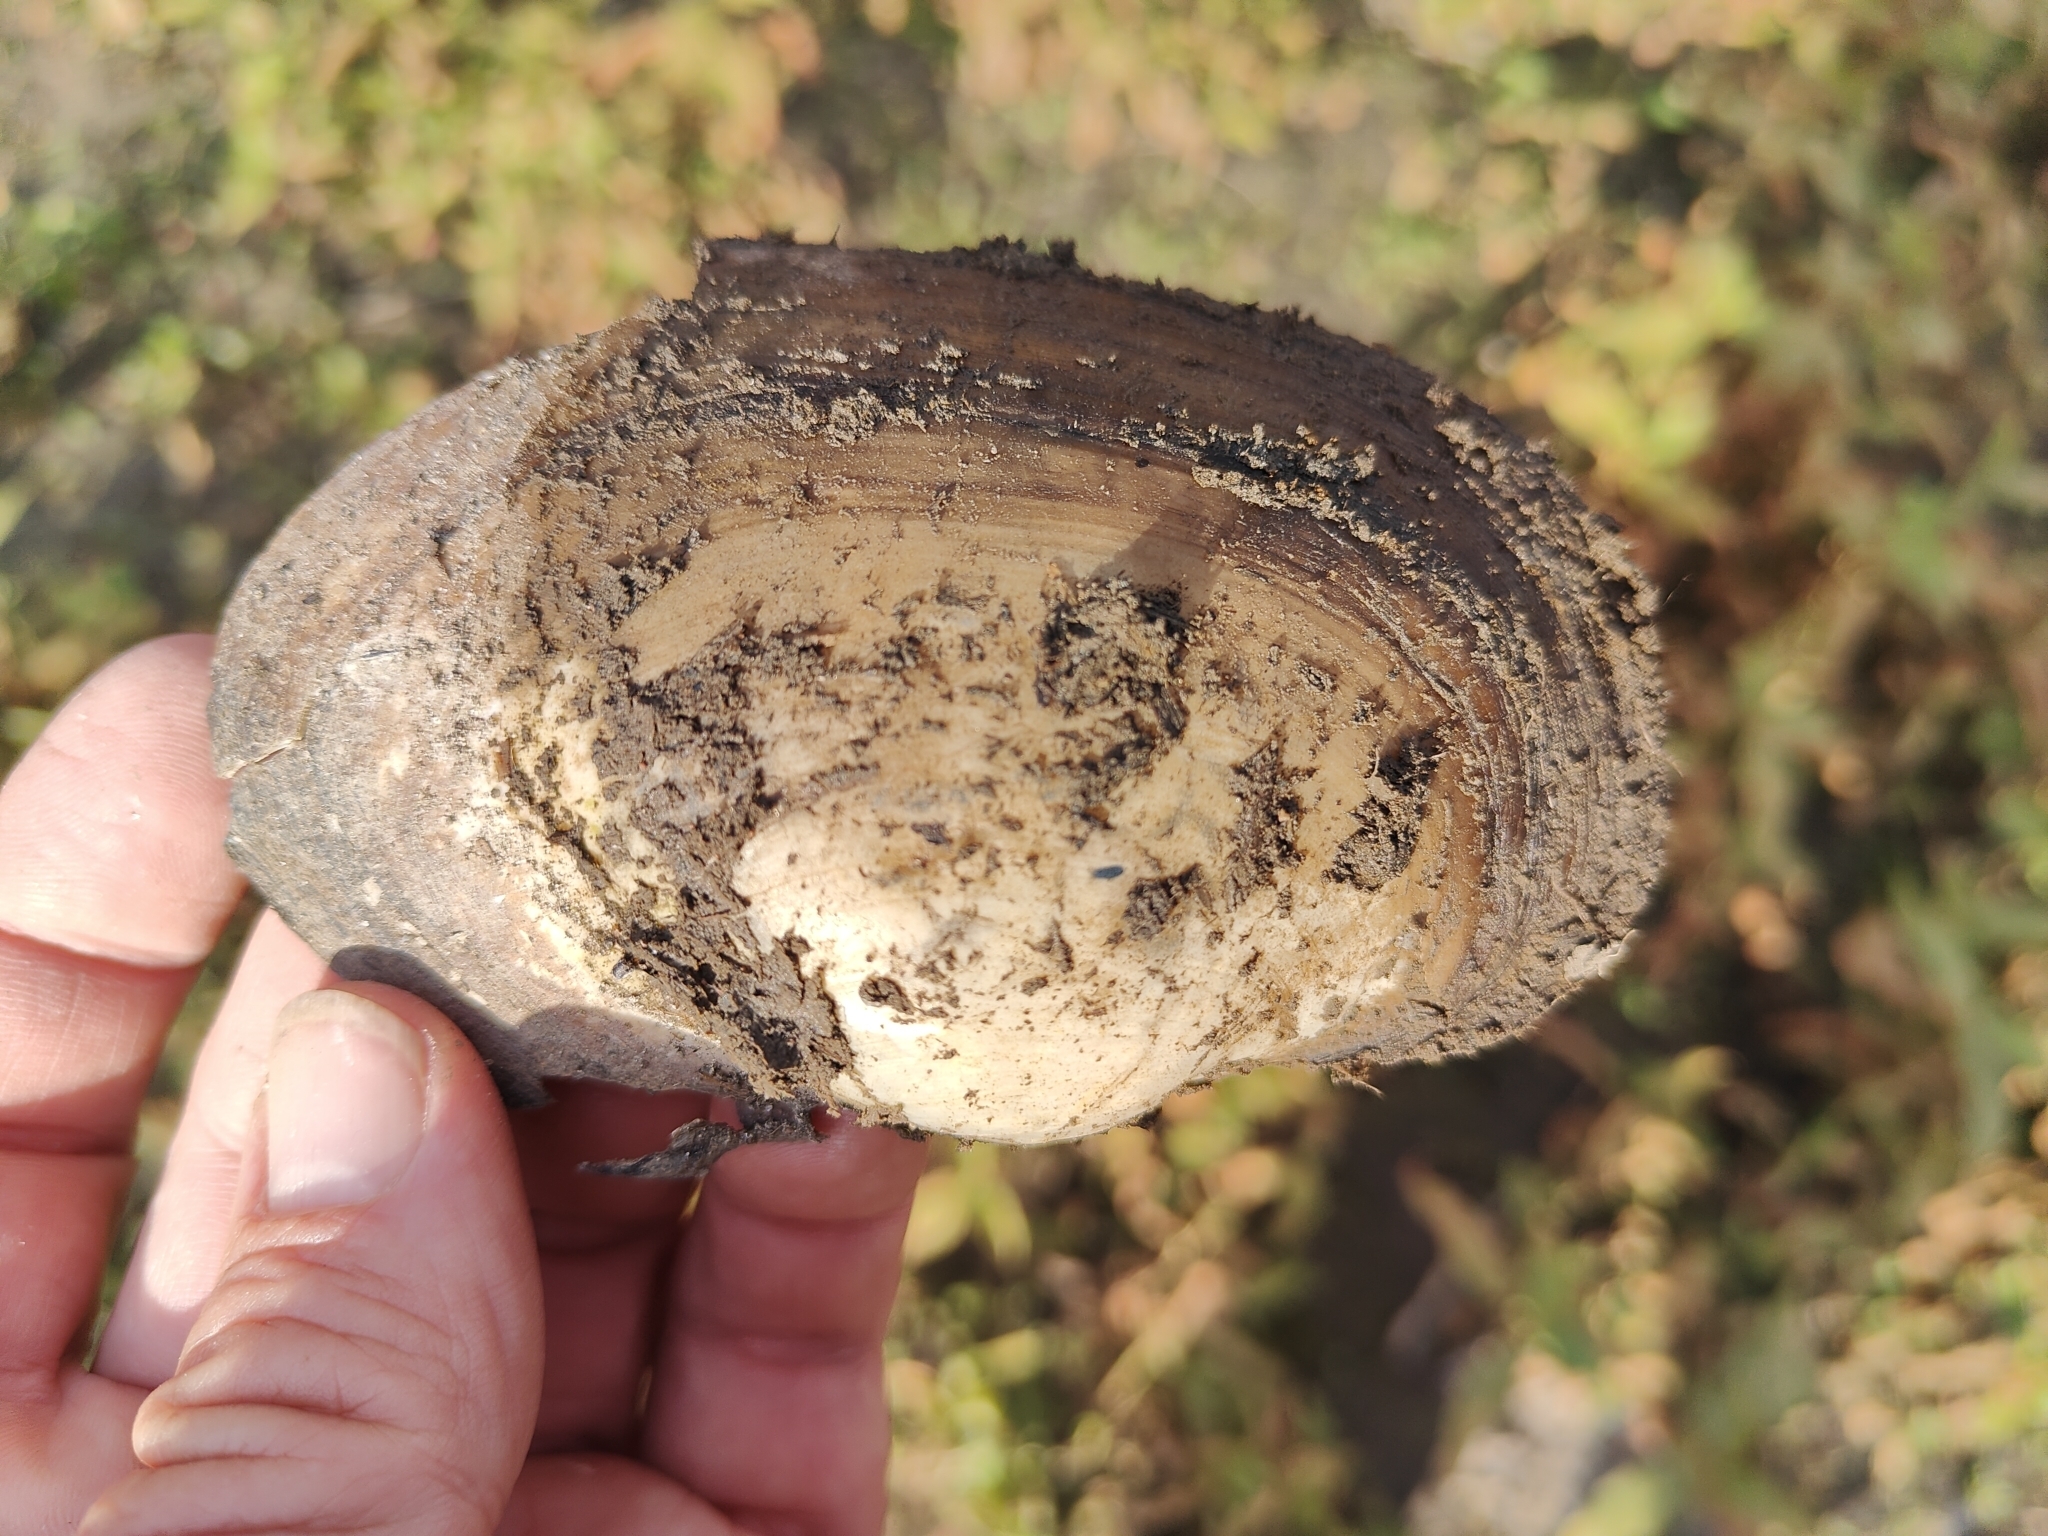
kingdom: Animalia
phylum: Mollusca
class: Bivalvia
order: Unionida
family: Unionidae
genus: Pyganodon
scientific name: Pyganodon grandis
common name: Giant floater
